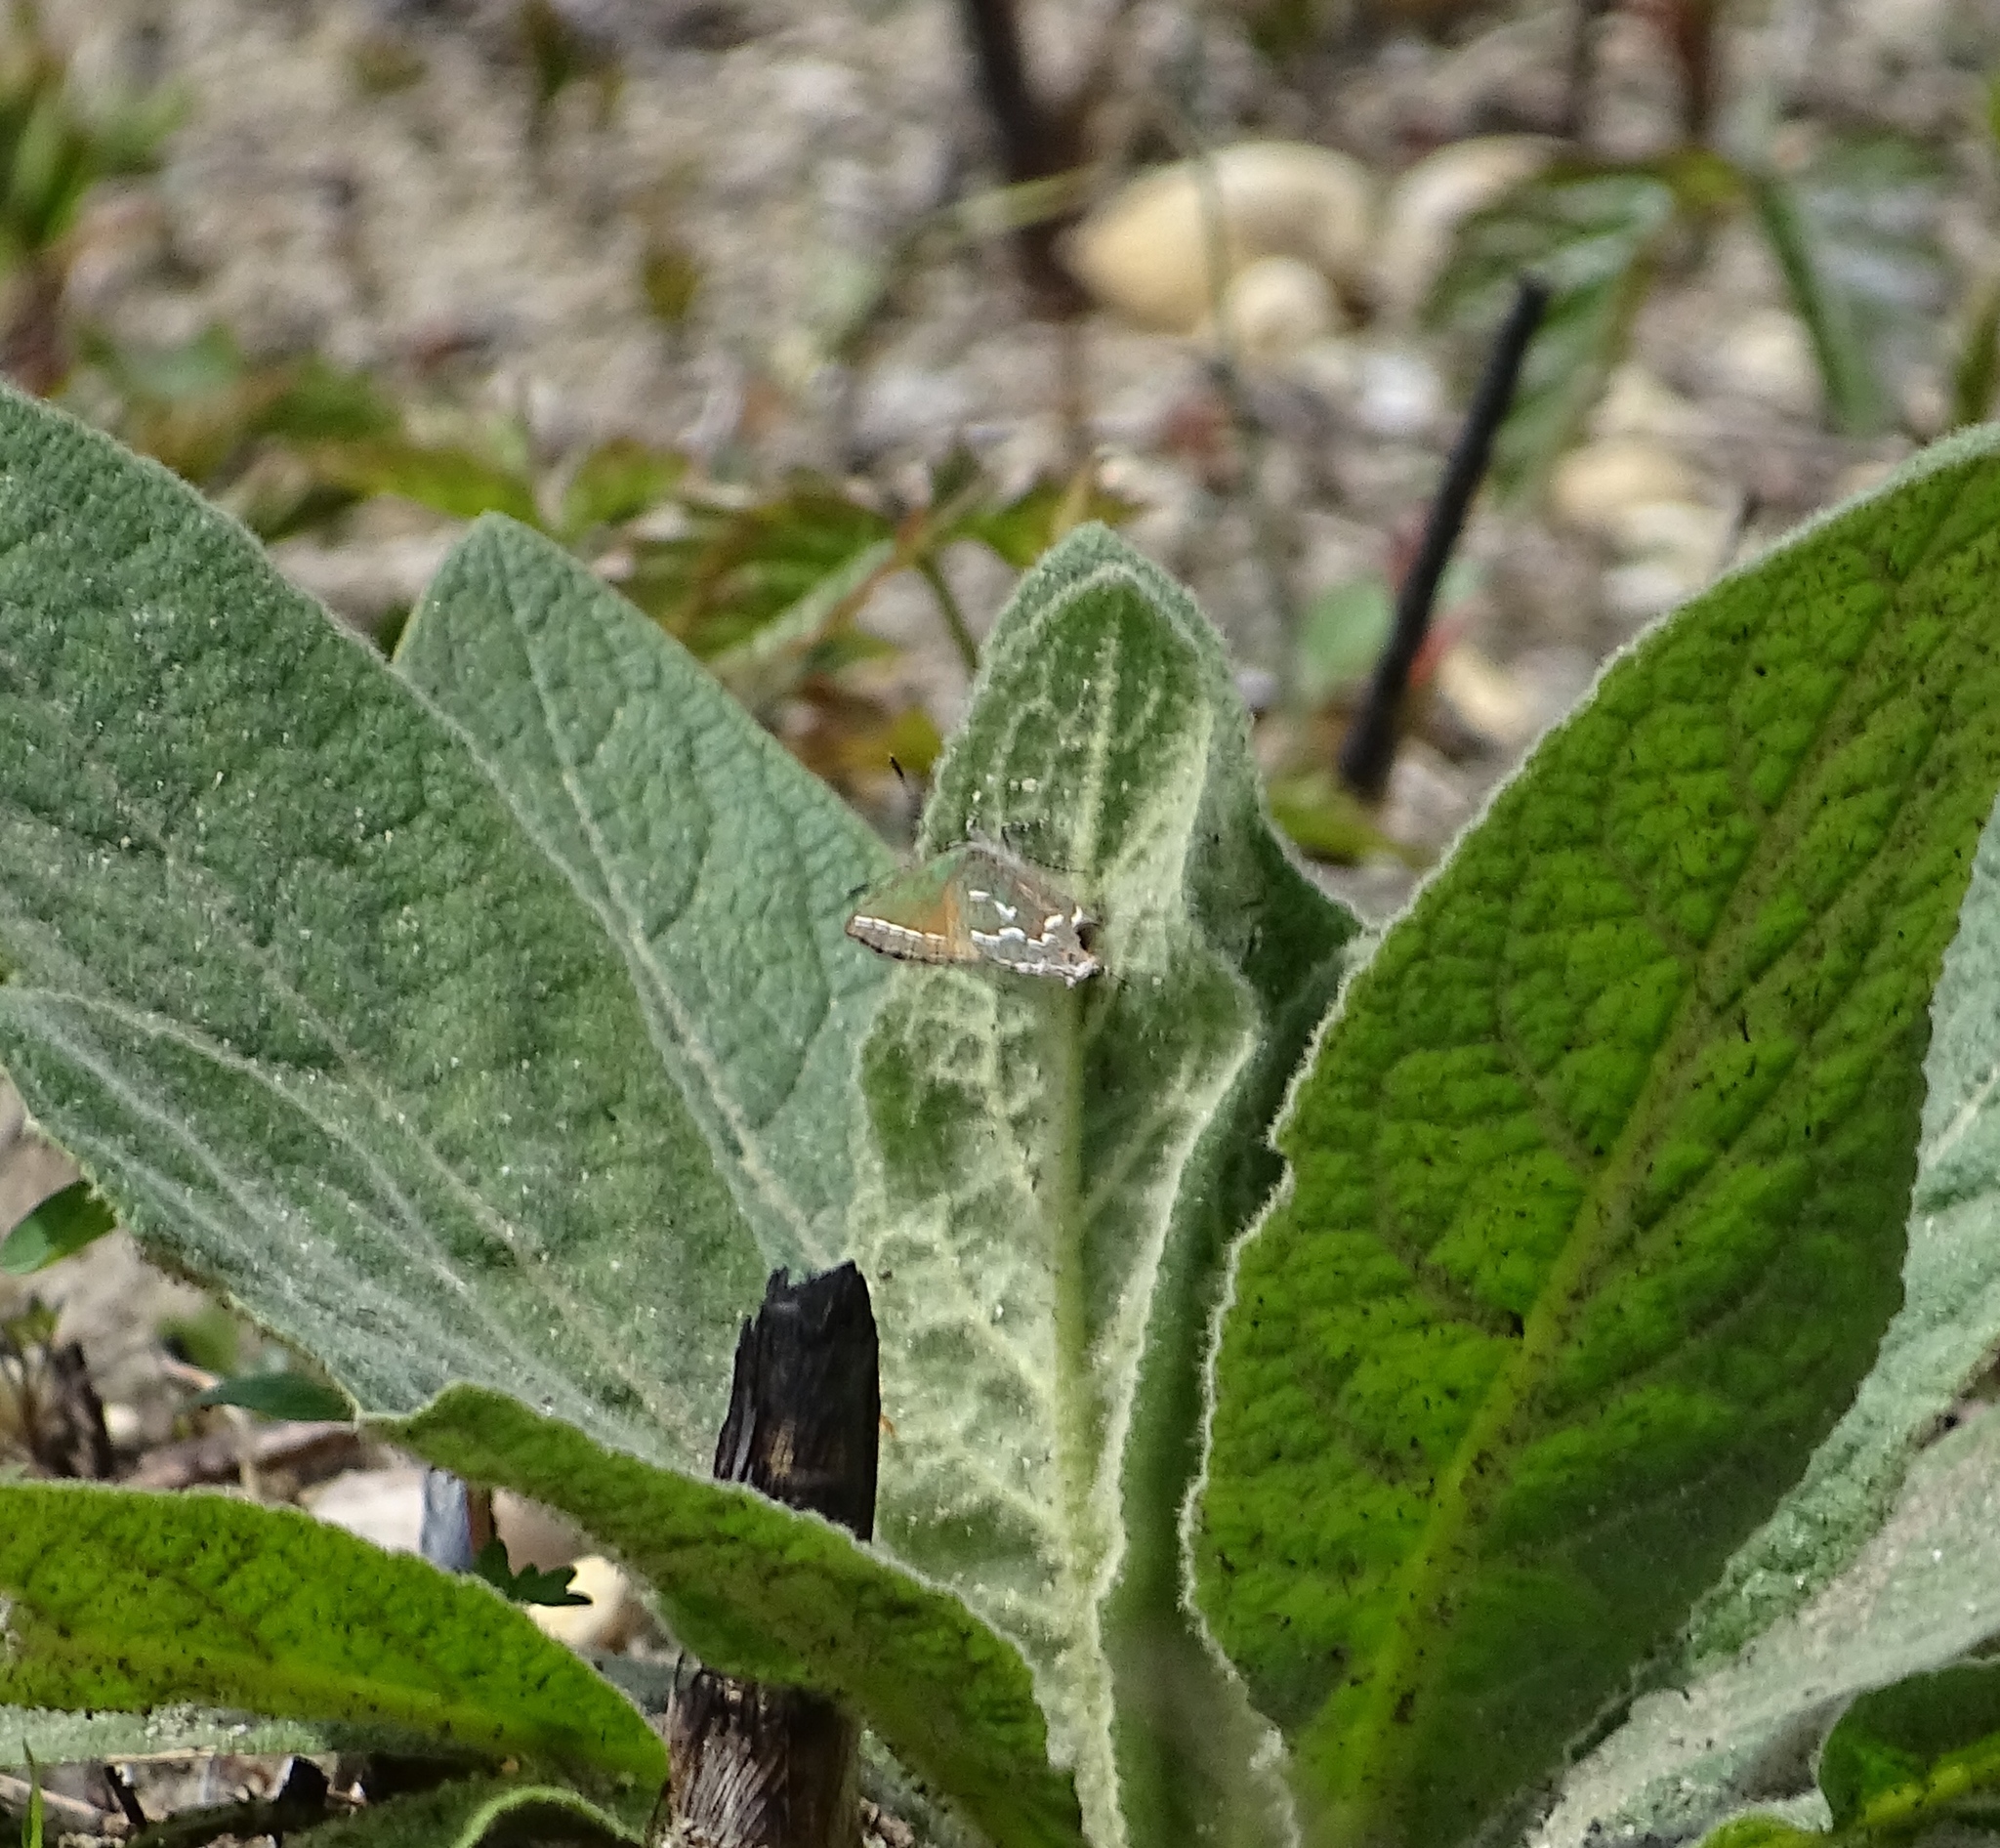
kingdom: Animalia
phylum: Arthropoda
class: Insecta
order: Lepidoptera
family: Lycaenidae
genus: Mitoura
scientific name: Mitoura gryneus
